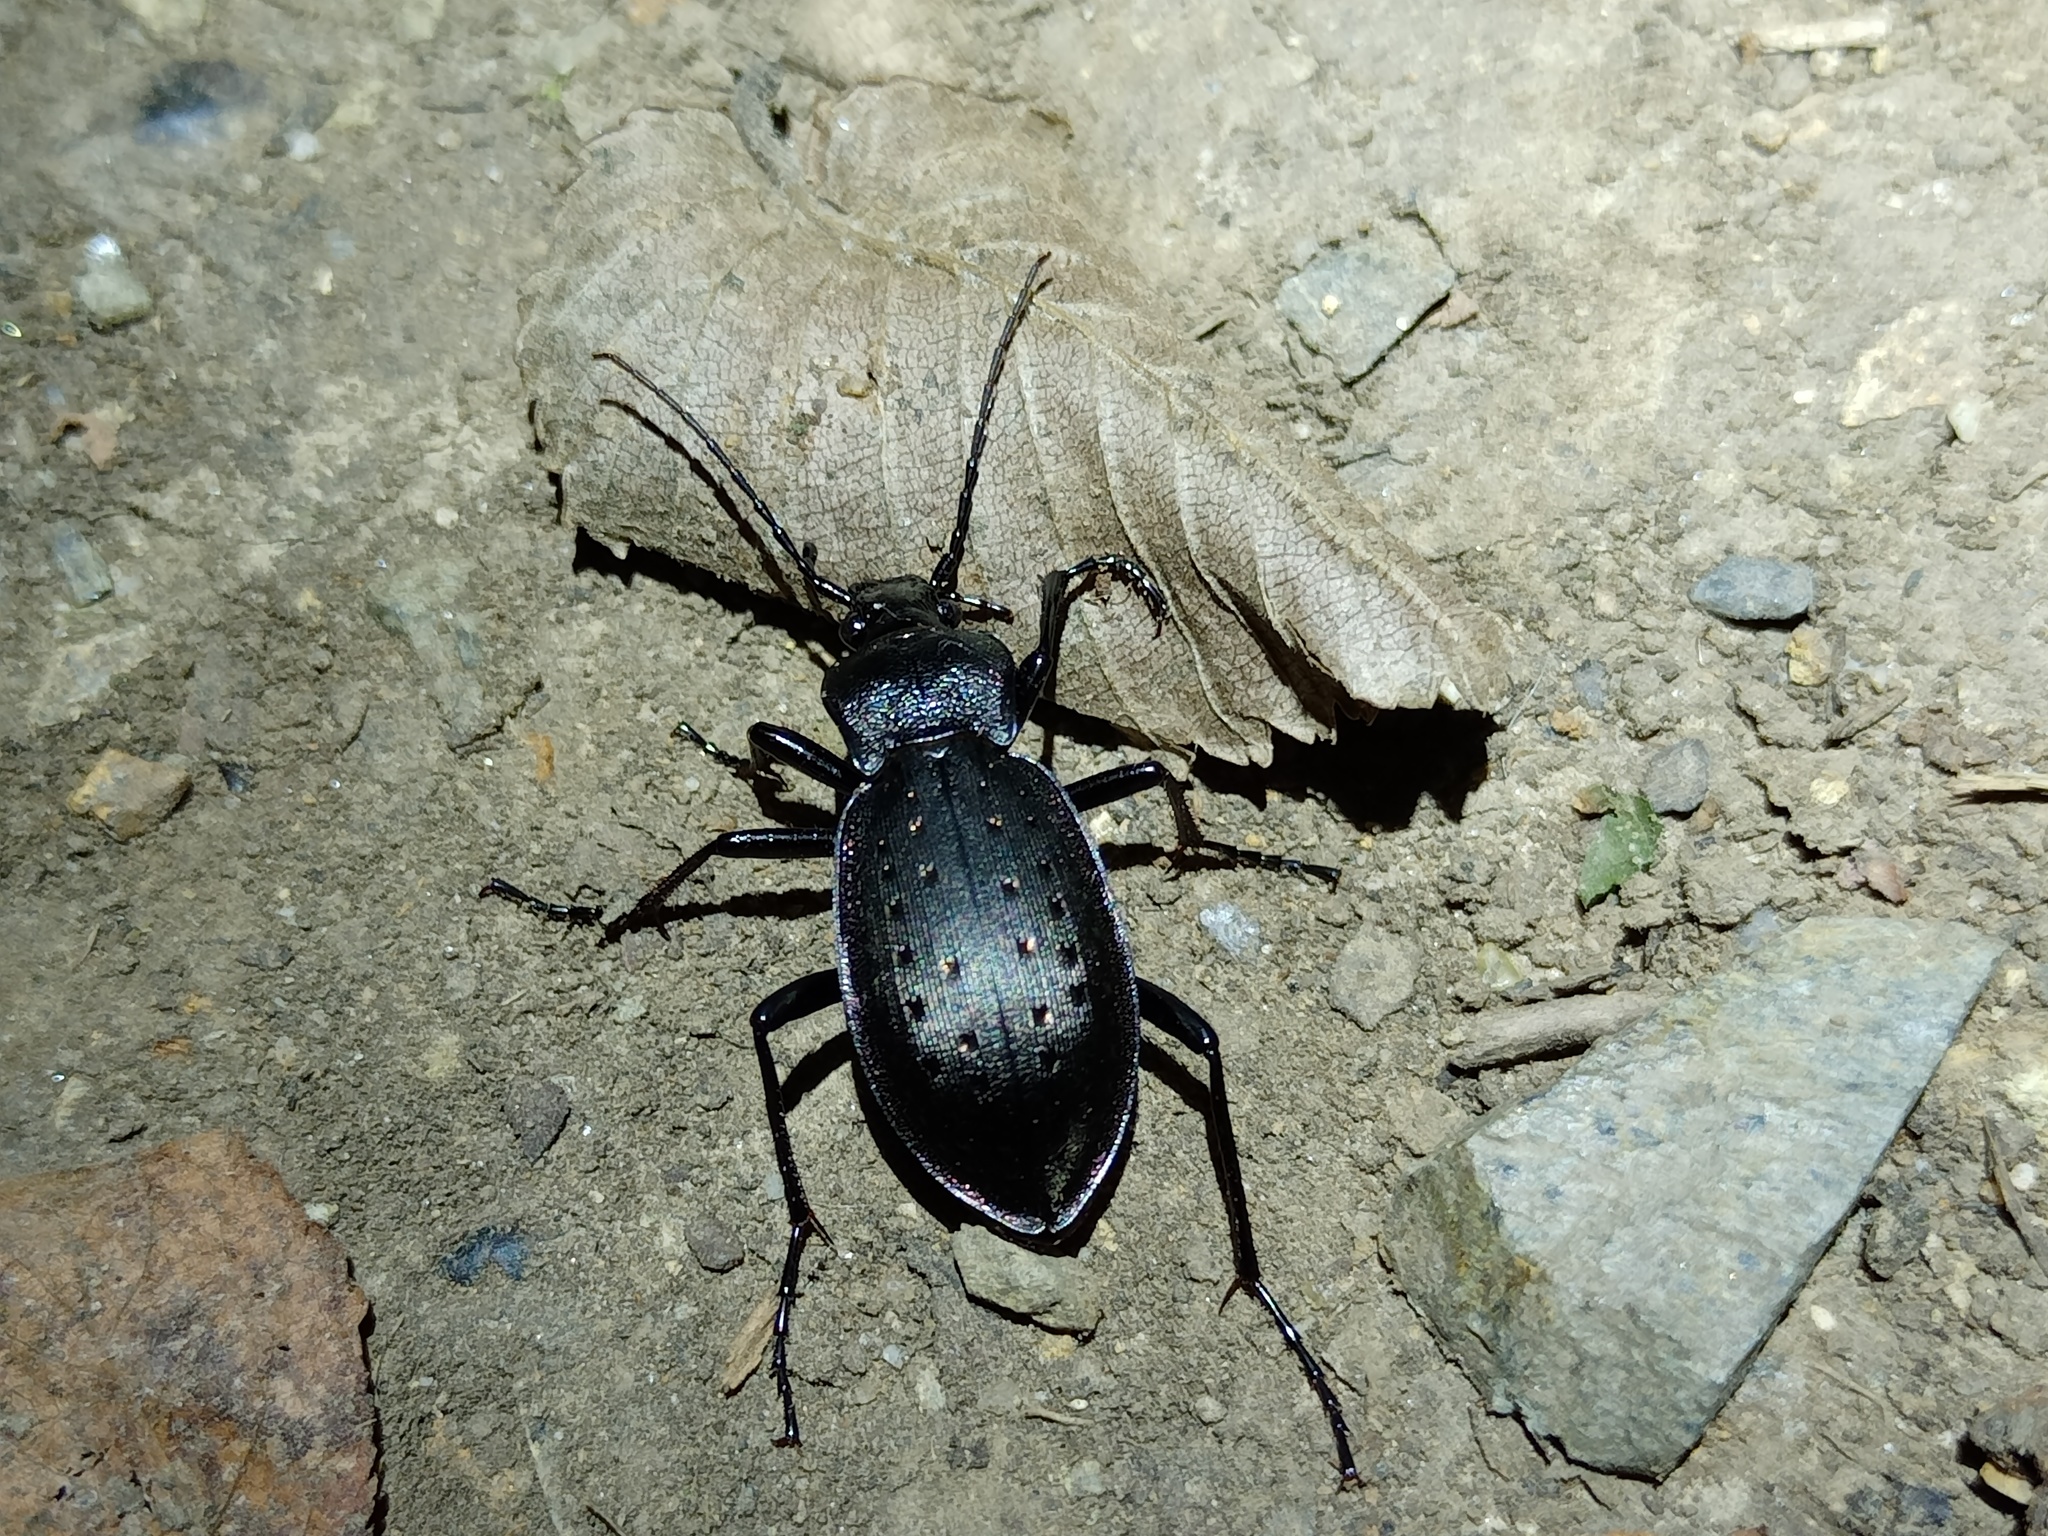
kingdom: Animalia
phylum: Arthropoda
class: Insecta
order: Coleoptera
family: Carabidae
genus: Carabus
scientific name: Carabus hortensis
